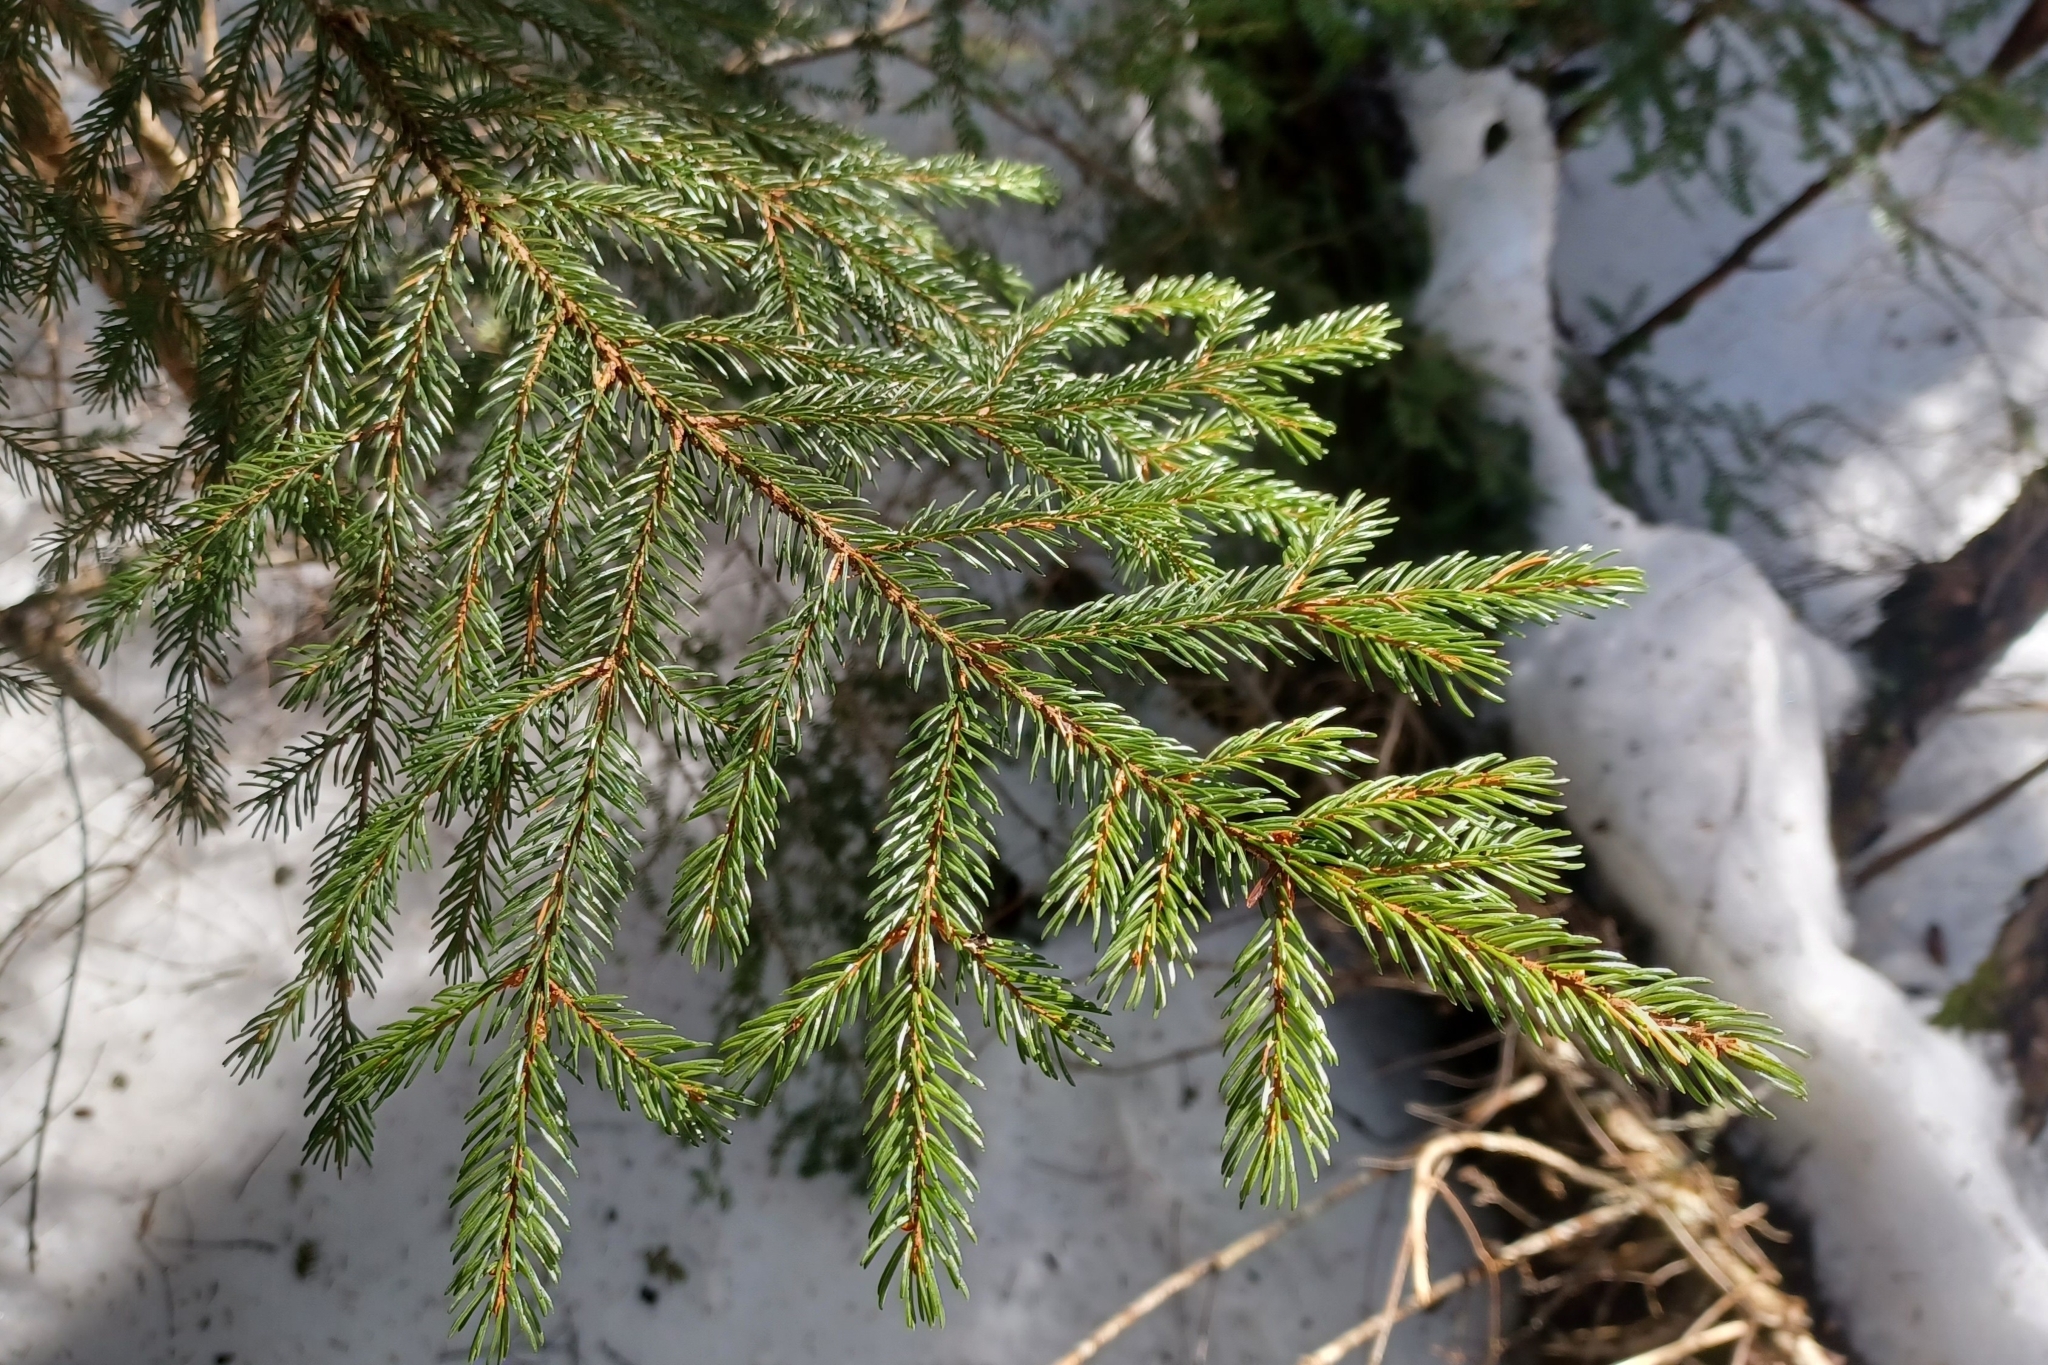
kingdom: Plantae
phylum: Tracheophyta
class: Pinopsida
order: Pinales
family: Pinaceae
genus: Picea
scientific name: Picea rubens
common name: Red spruce
